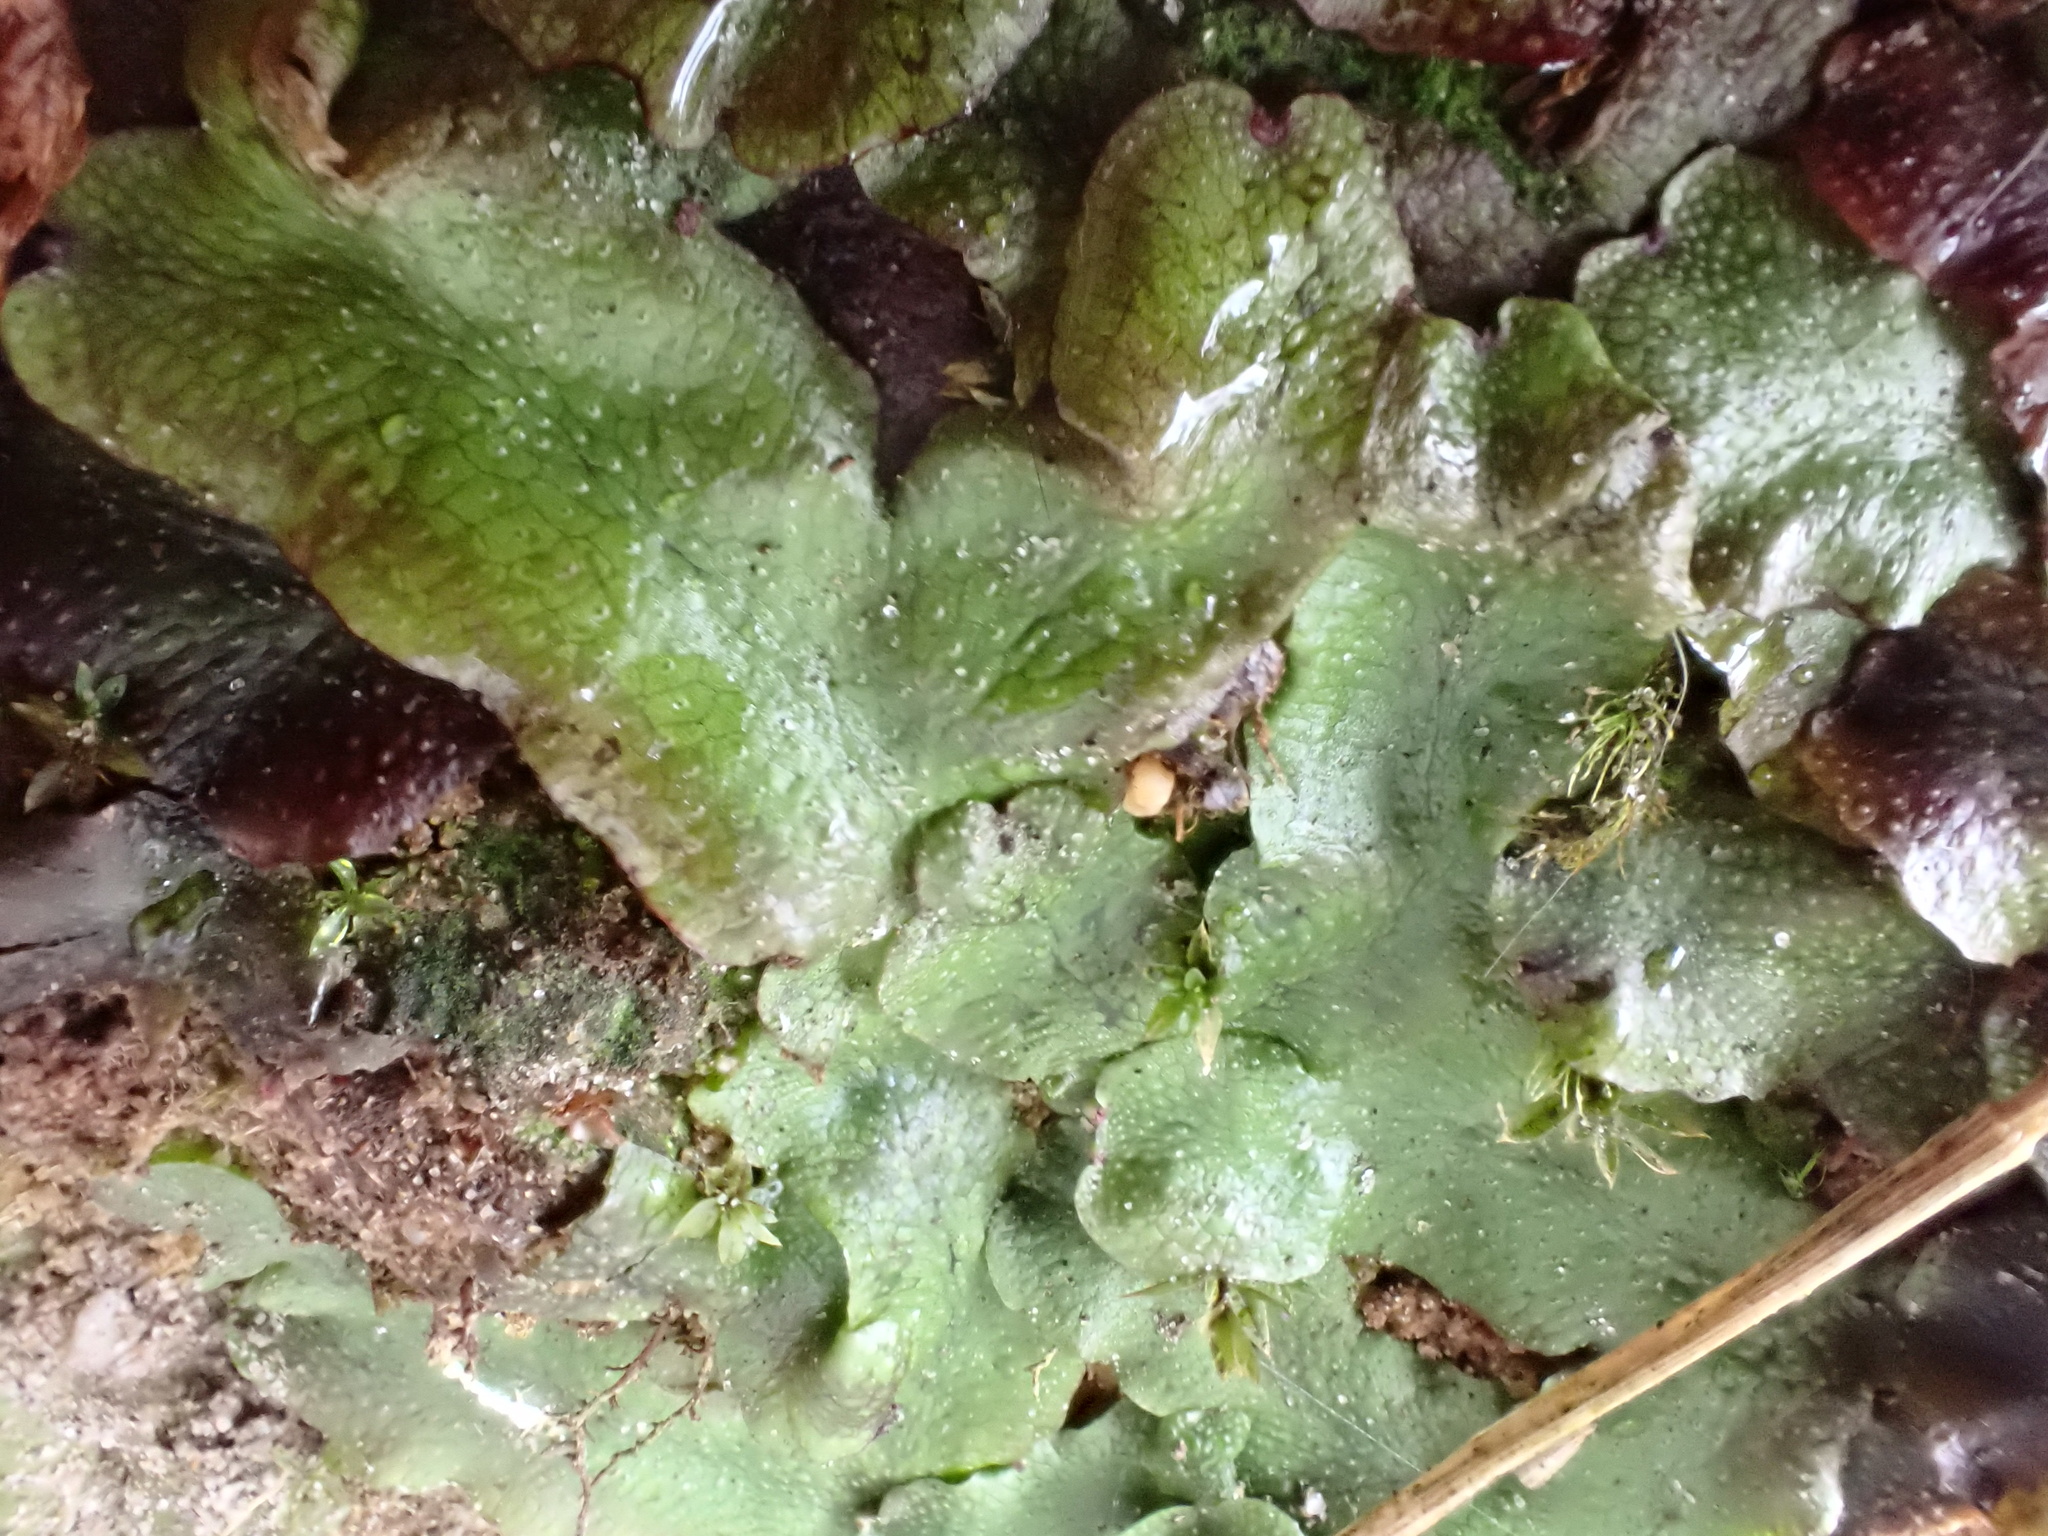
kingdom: Plantae
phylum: Marchantiophyta
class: Marchantiopsida
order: Marchantiales
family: Conocephalaceae
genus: Conocephalum
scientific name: Conocephalum conicum
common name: Great scented liverwort
